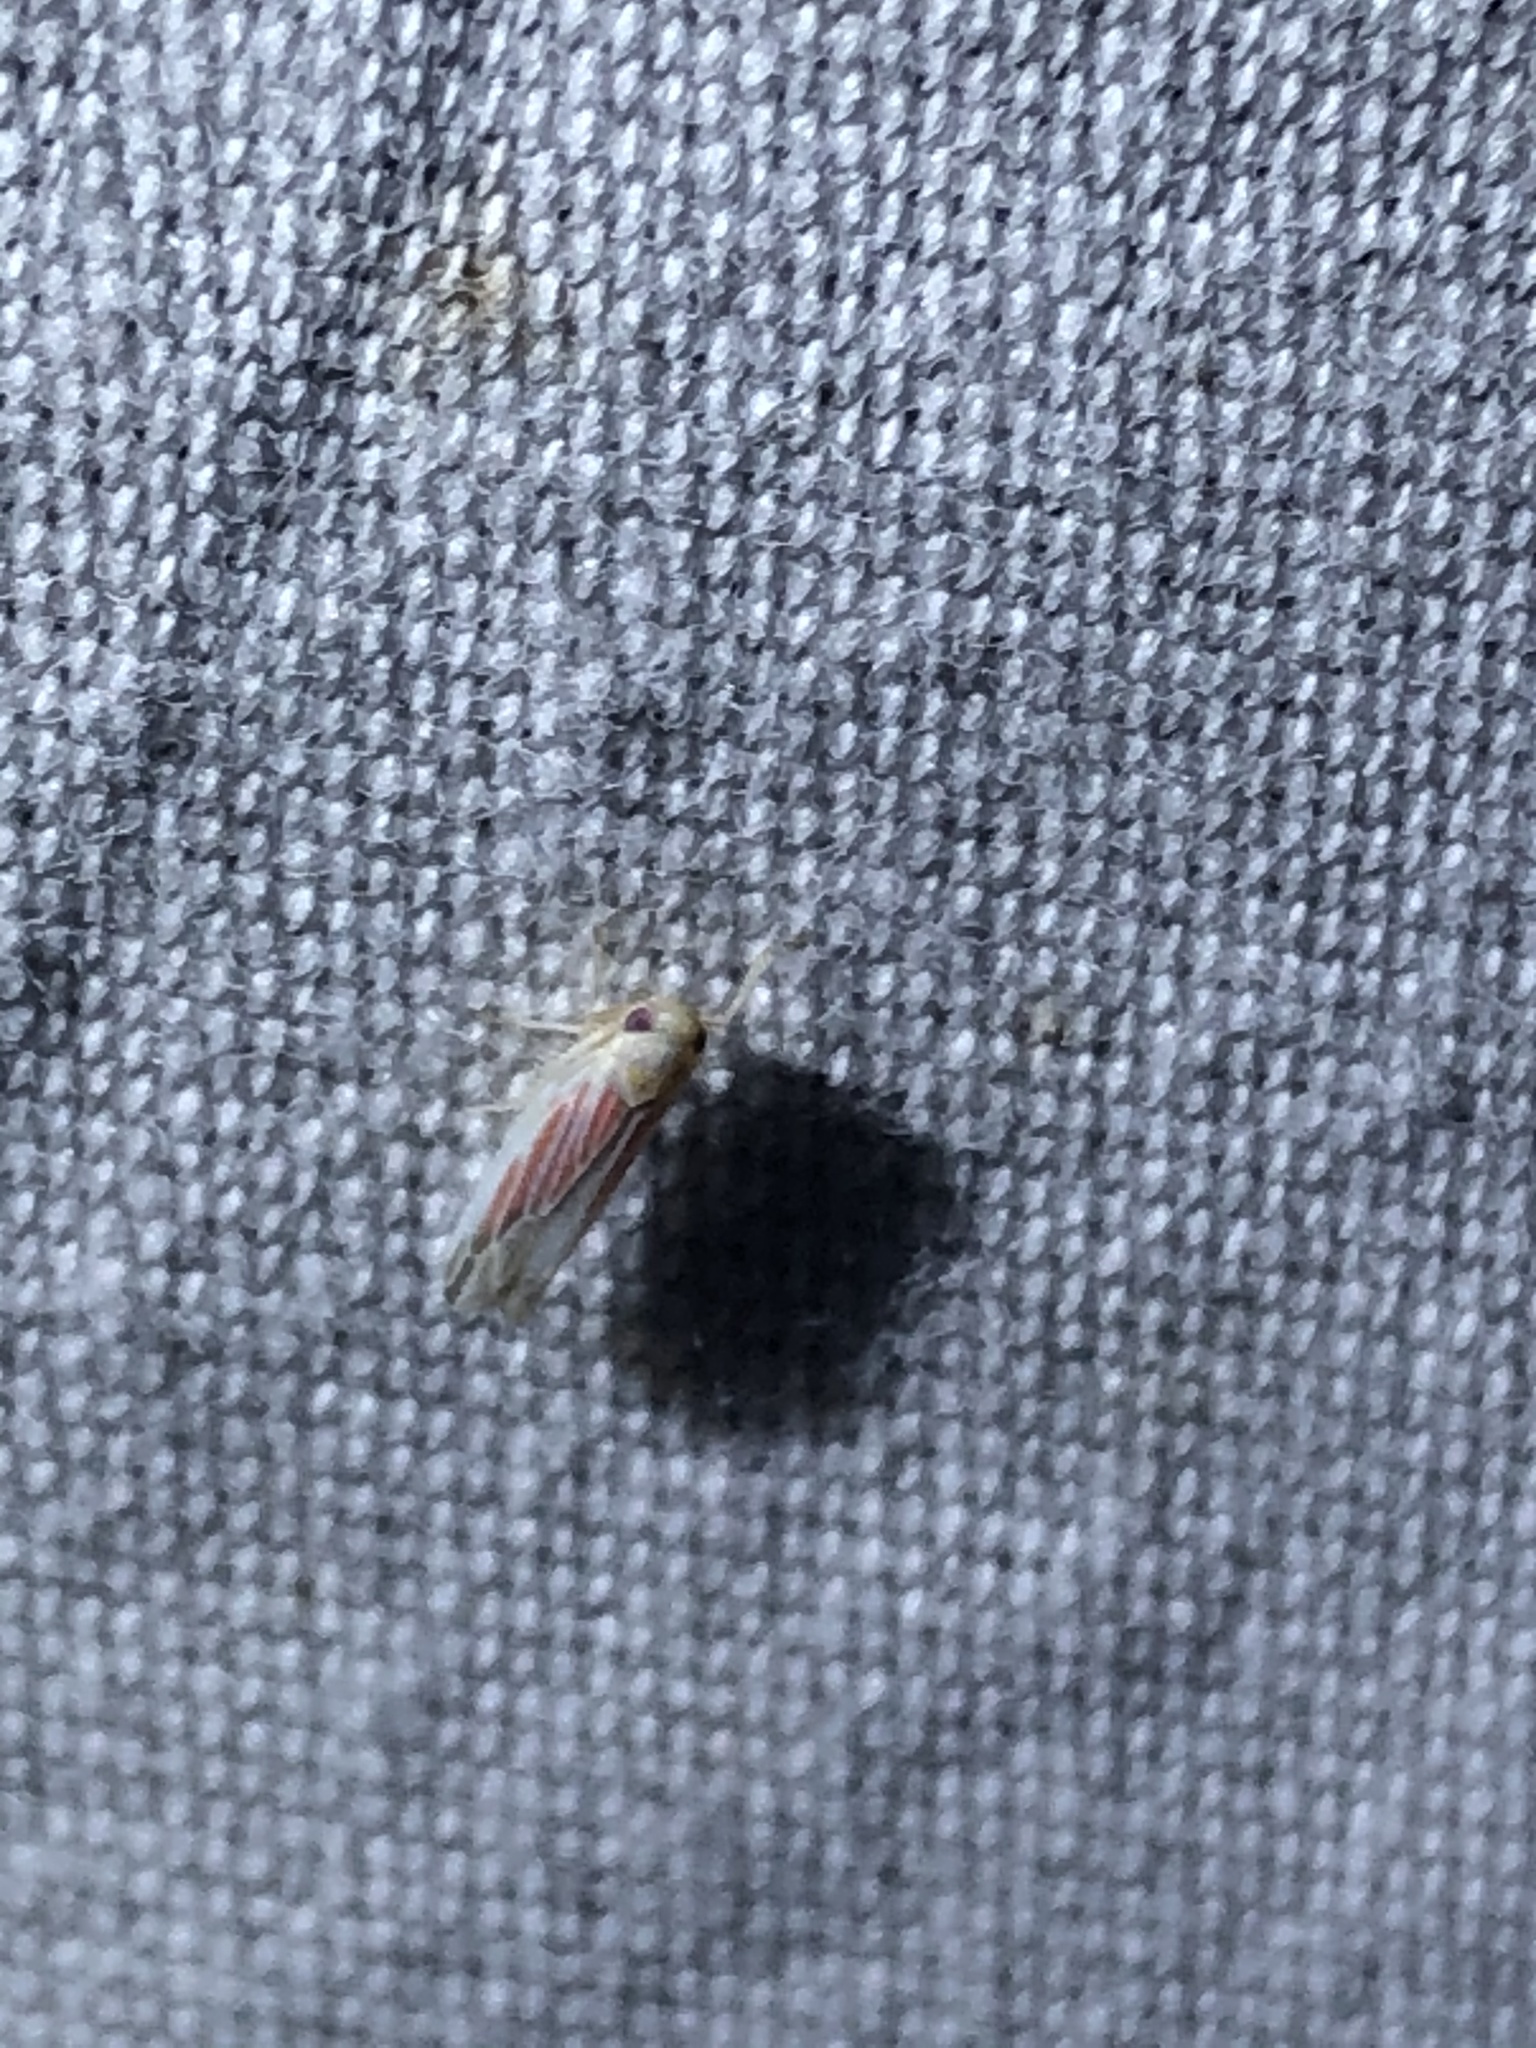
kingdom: Animalia
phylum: Arthropoda
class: Insecta
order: Hemiptera
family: Cicadellidae
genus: Balclutha
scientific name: Balclutha rubrostriata
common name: Red-streaked leafhopper
